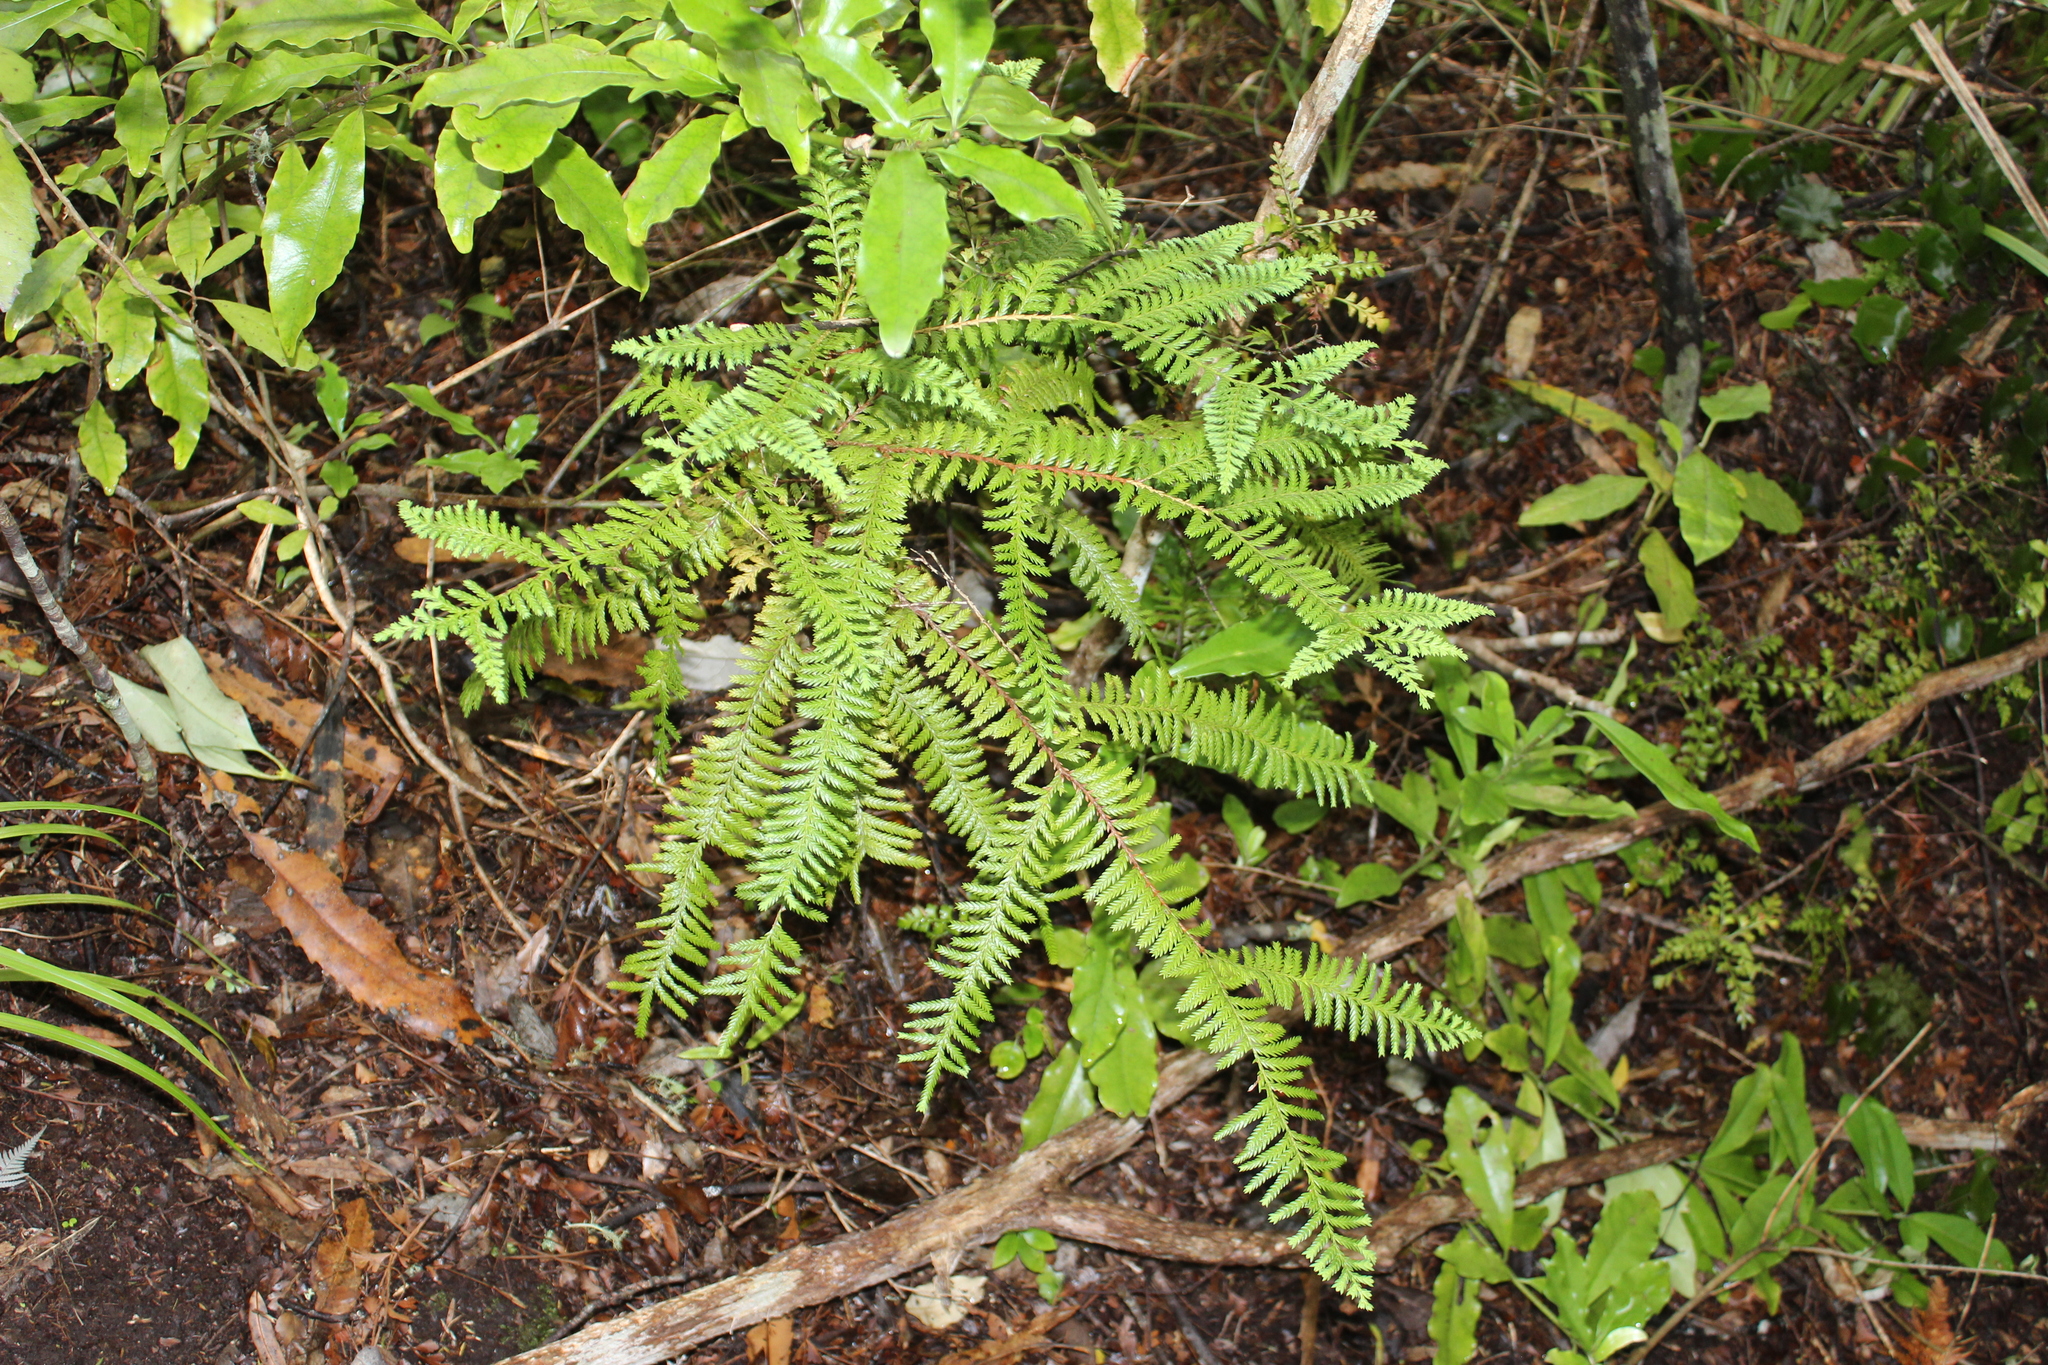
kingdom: Plantae
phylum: Tracheophyta
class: Pinopsida
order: Pinales
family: Cupressaceae
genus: Libocedrus
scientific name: Libocedrus plumosa
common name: New zealand cedar
